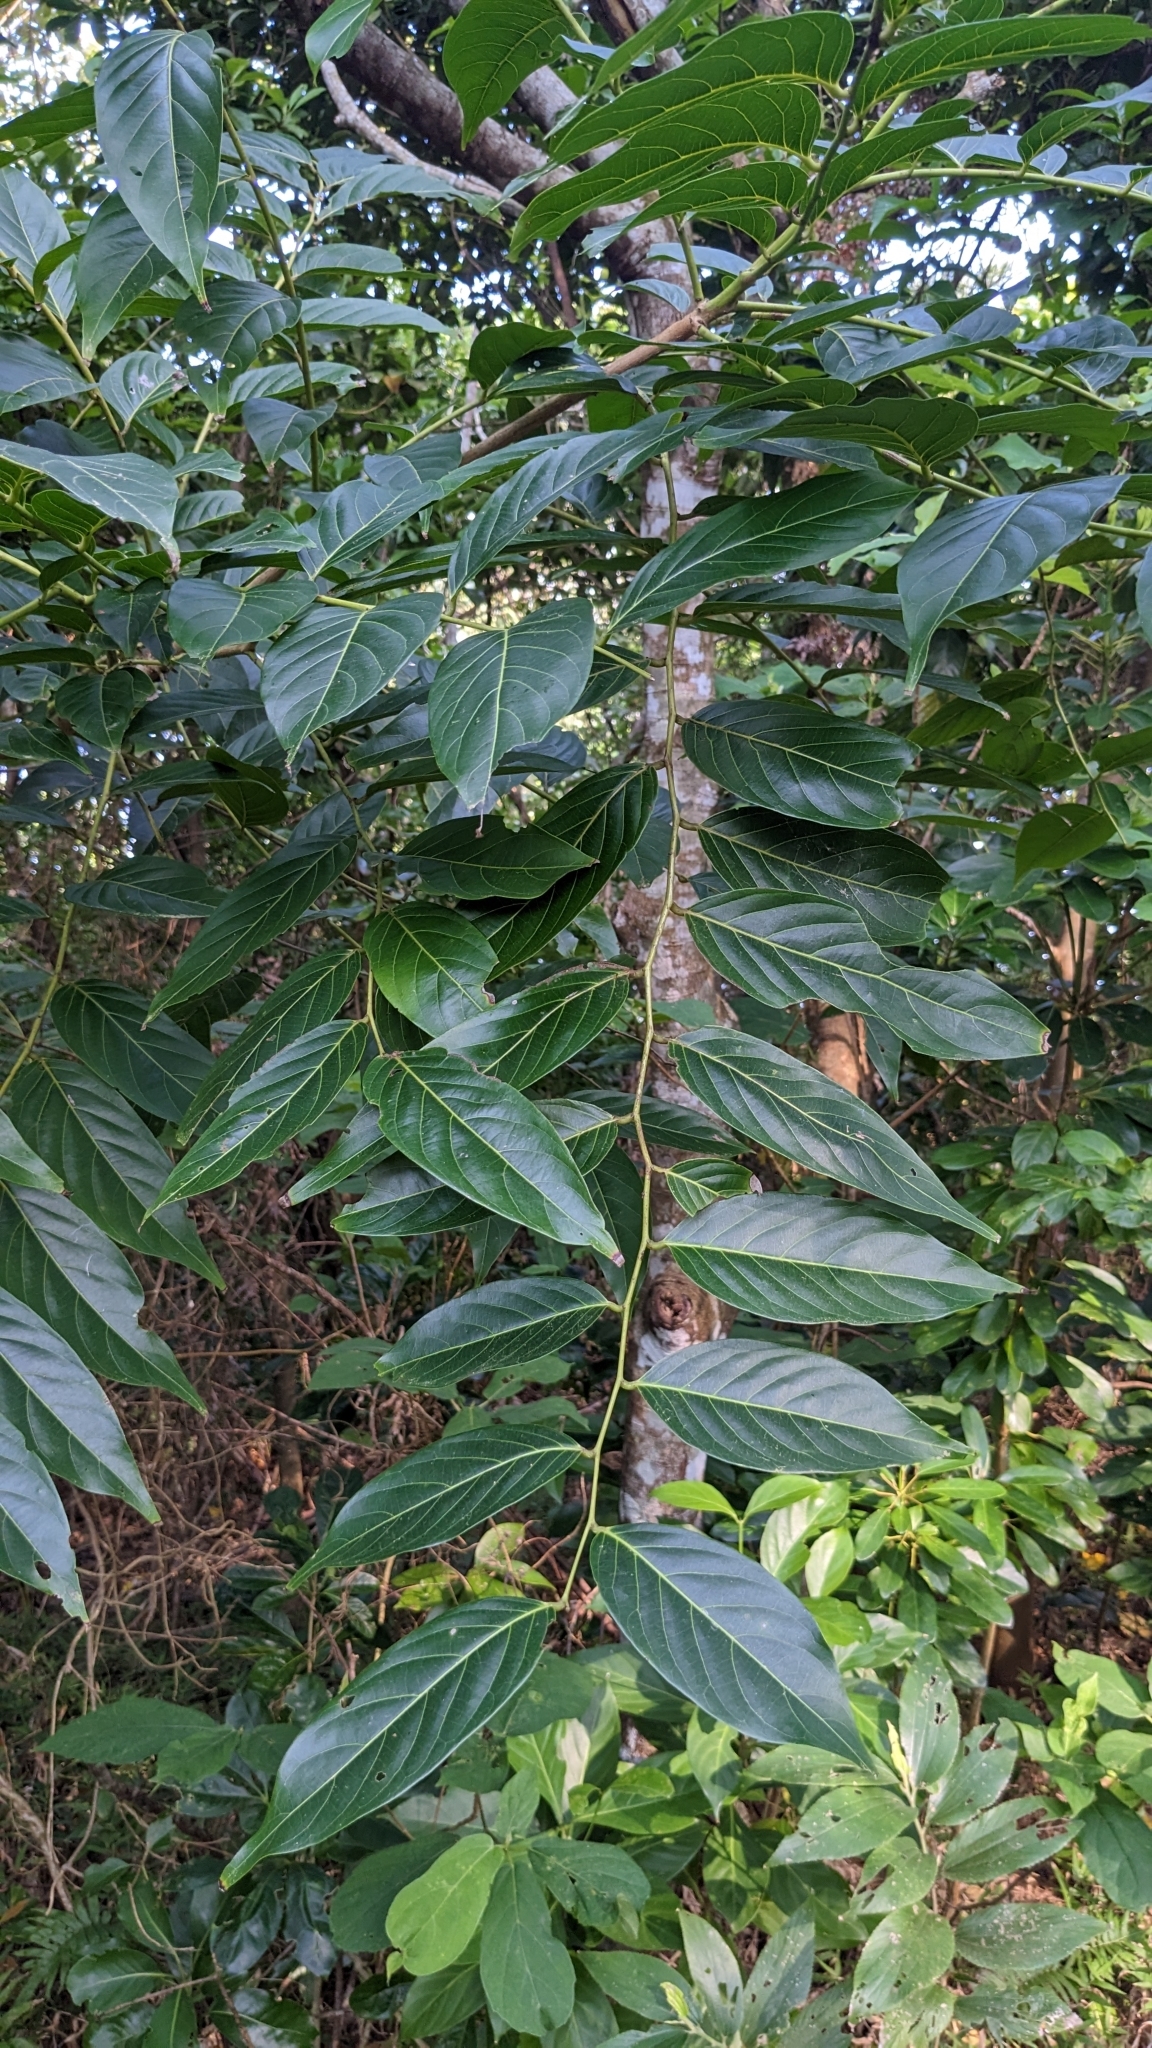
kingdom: Plantae
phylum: Tracheophyta
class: Magnoliopsida
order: Malpighiales
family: Phyllanthaceae
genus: Glochidion
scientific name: Glochidion lanceolatum
